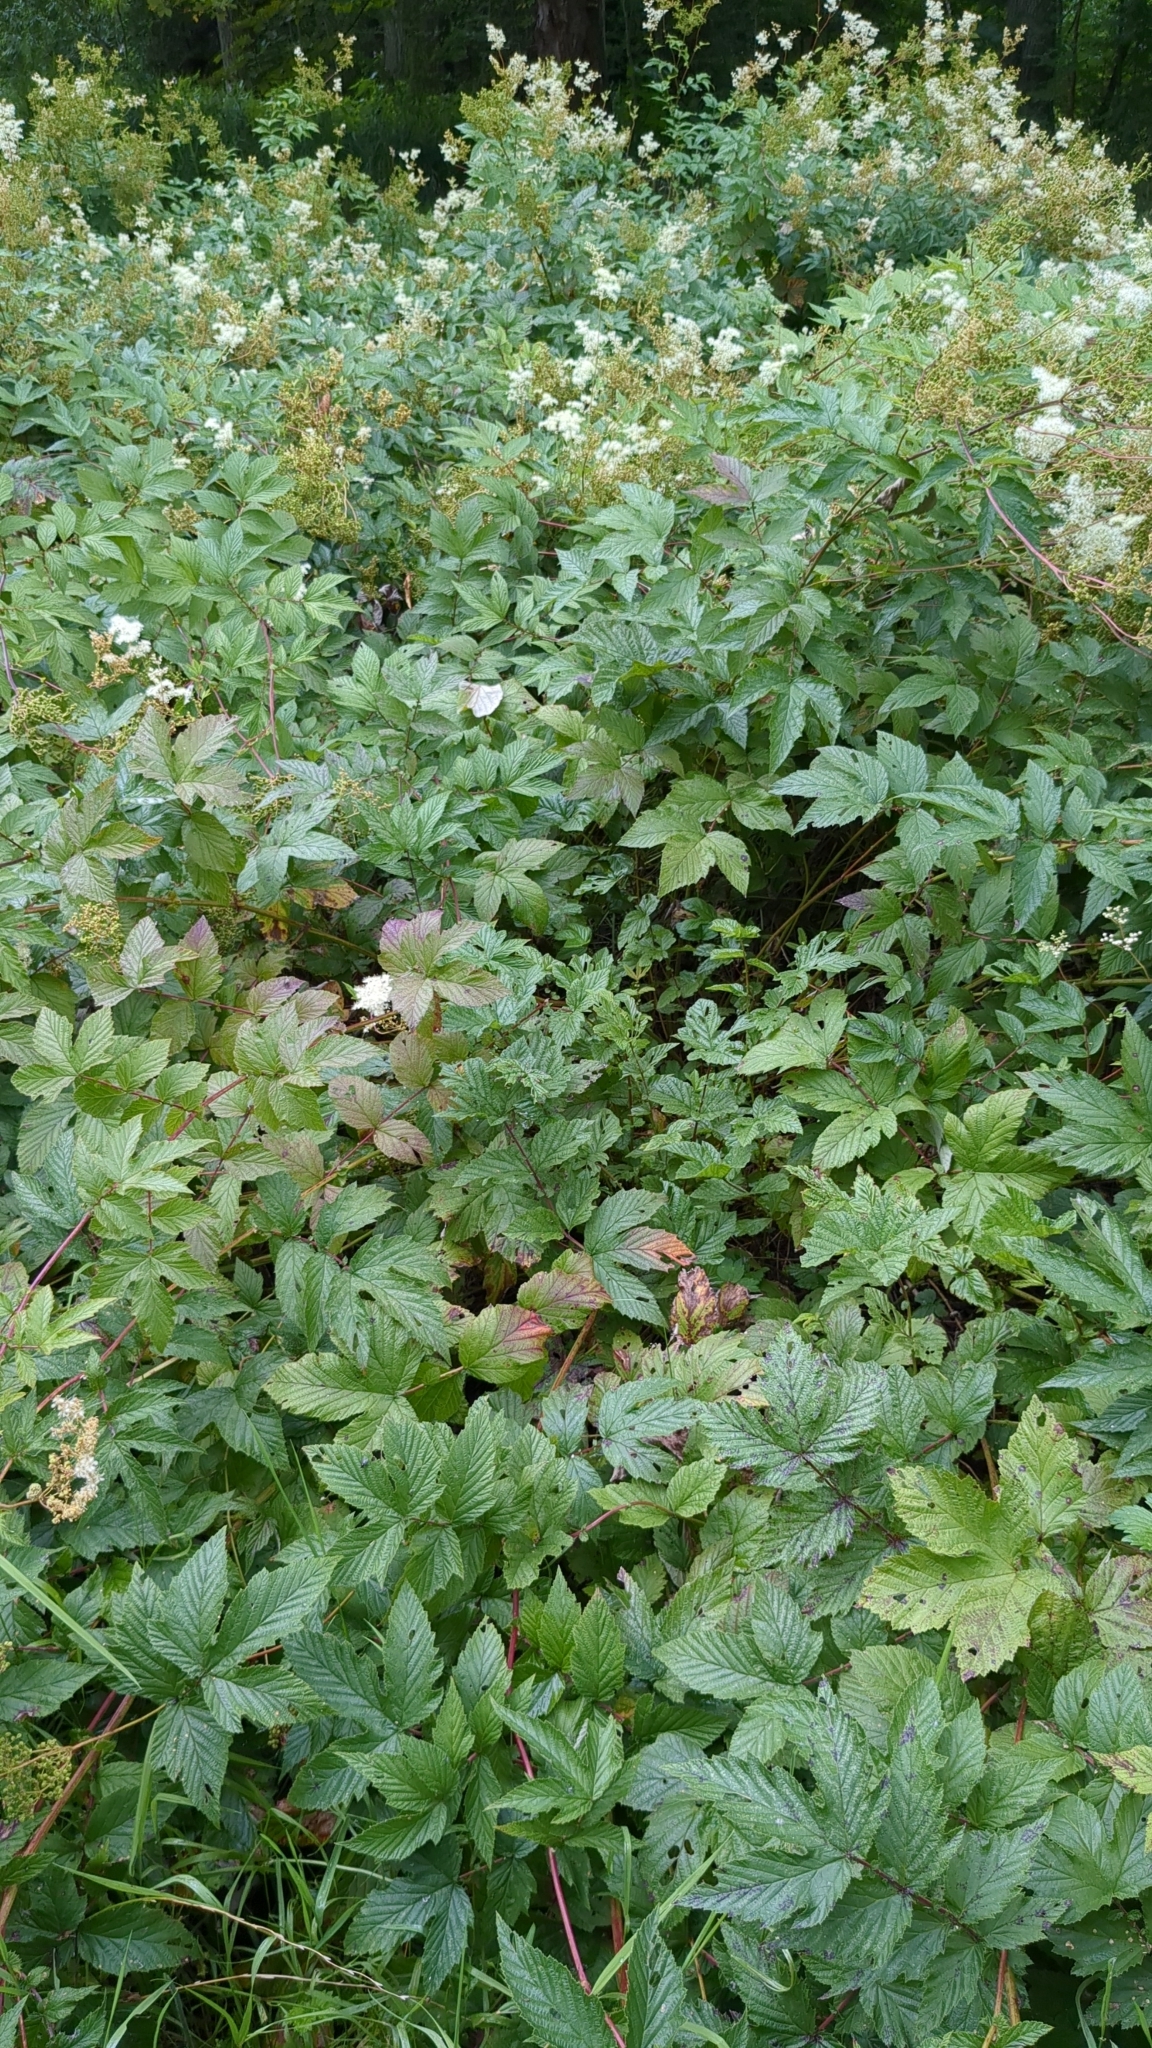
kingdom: Plantae
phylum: Tracheophyta
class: Magnoliopsida
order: Rosales
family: Rosaceae
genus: Filipendula
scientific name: Filipendula ulmaria
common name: Meadowsweet
